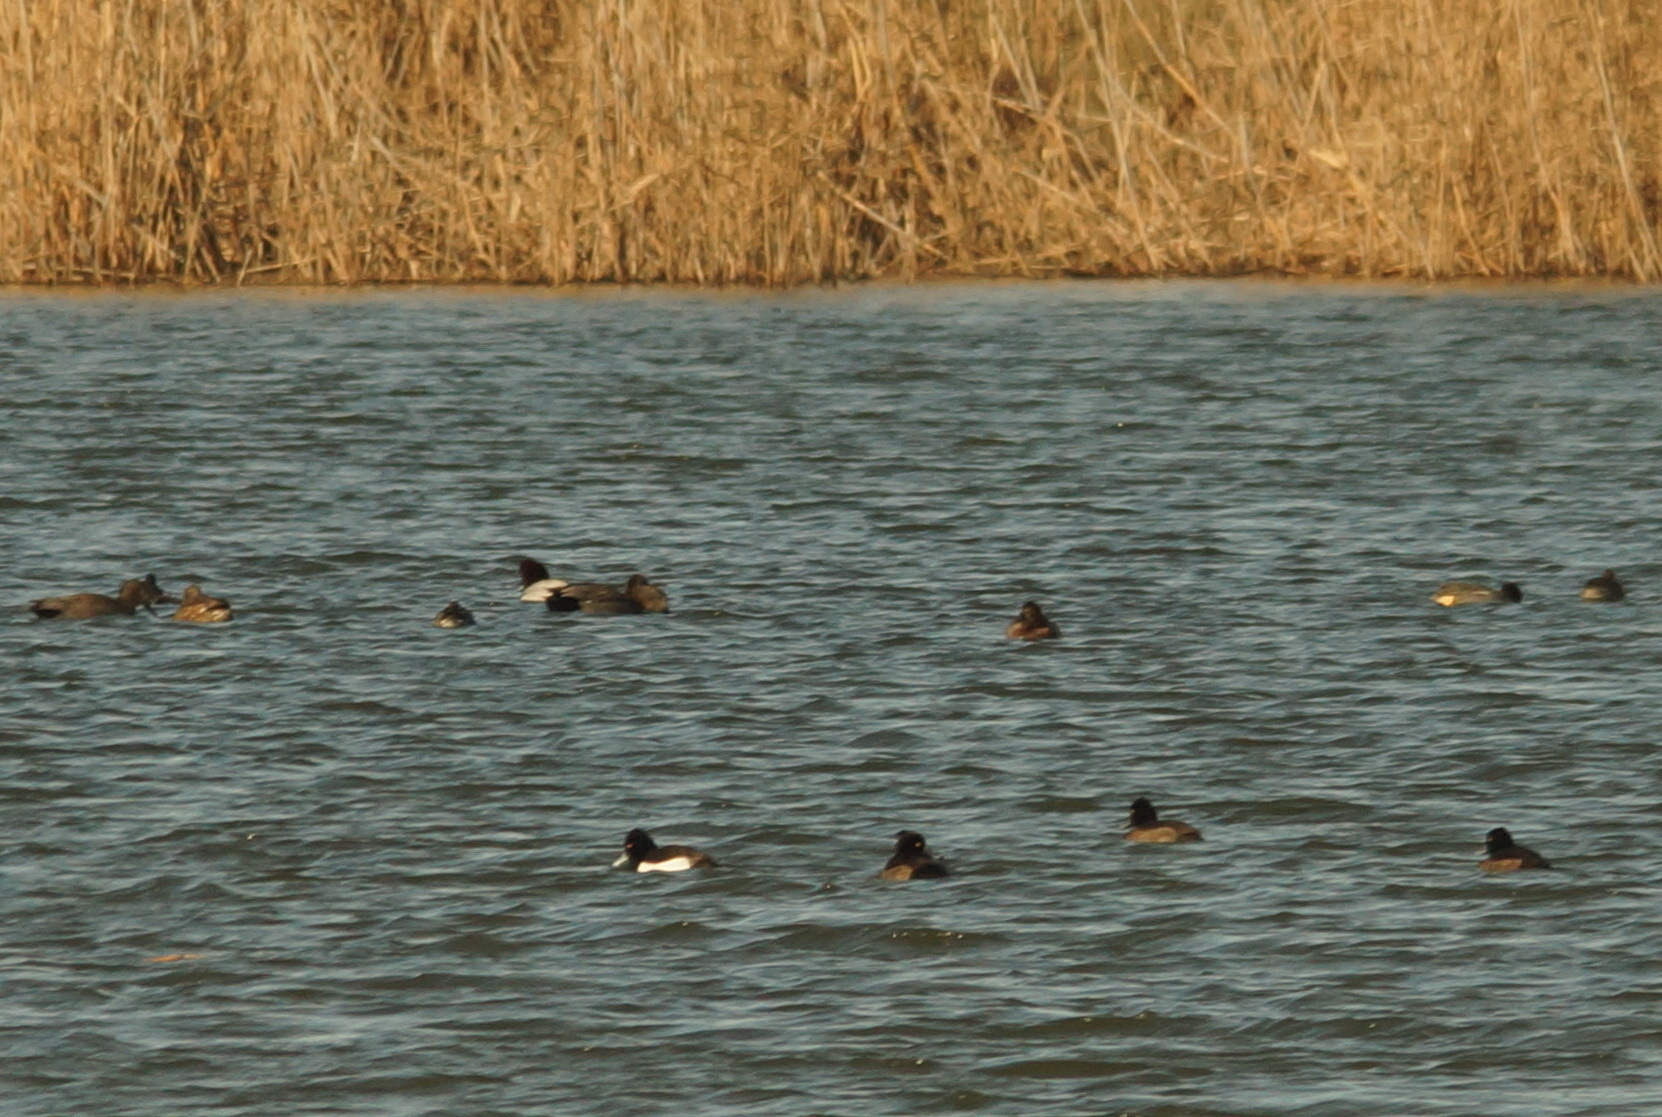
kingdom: Animalia
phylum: Chordata
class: Aves
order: Anseriformes
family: Anatidae
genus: Mareca
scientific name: Mareca strepera
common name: Gadwall
